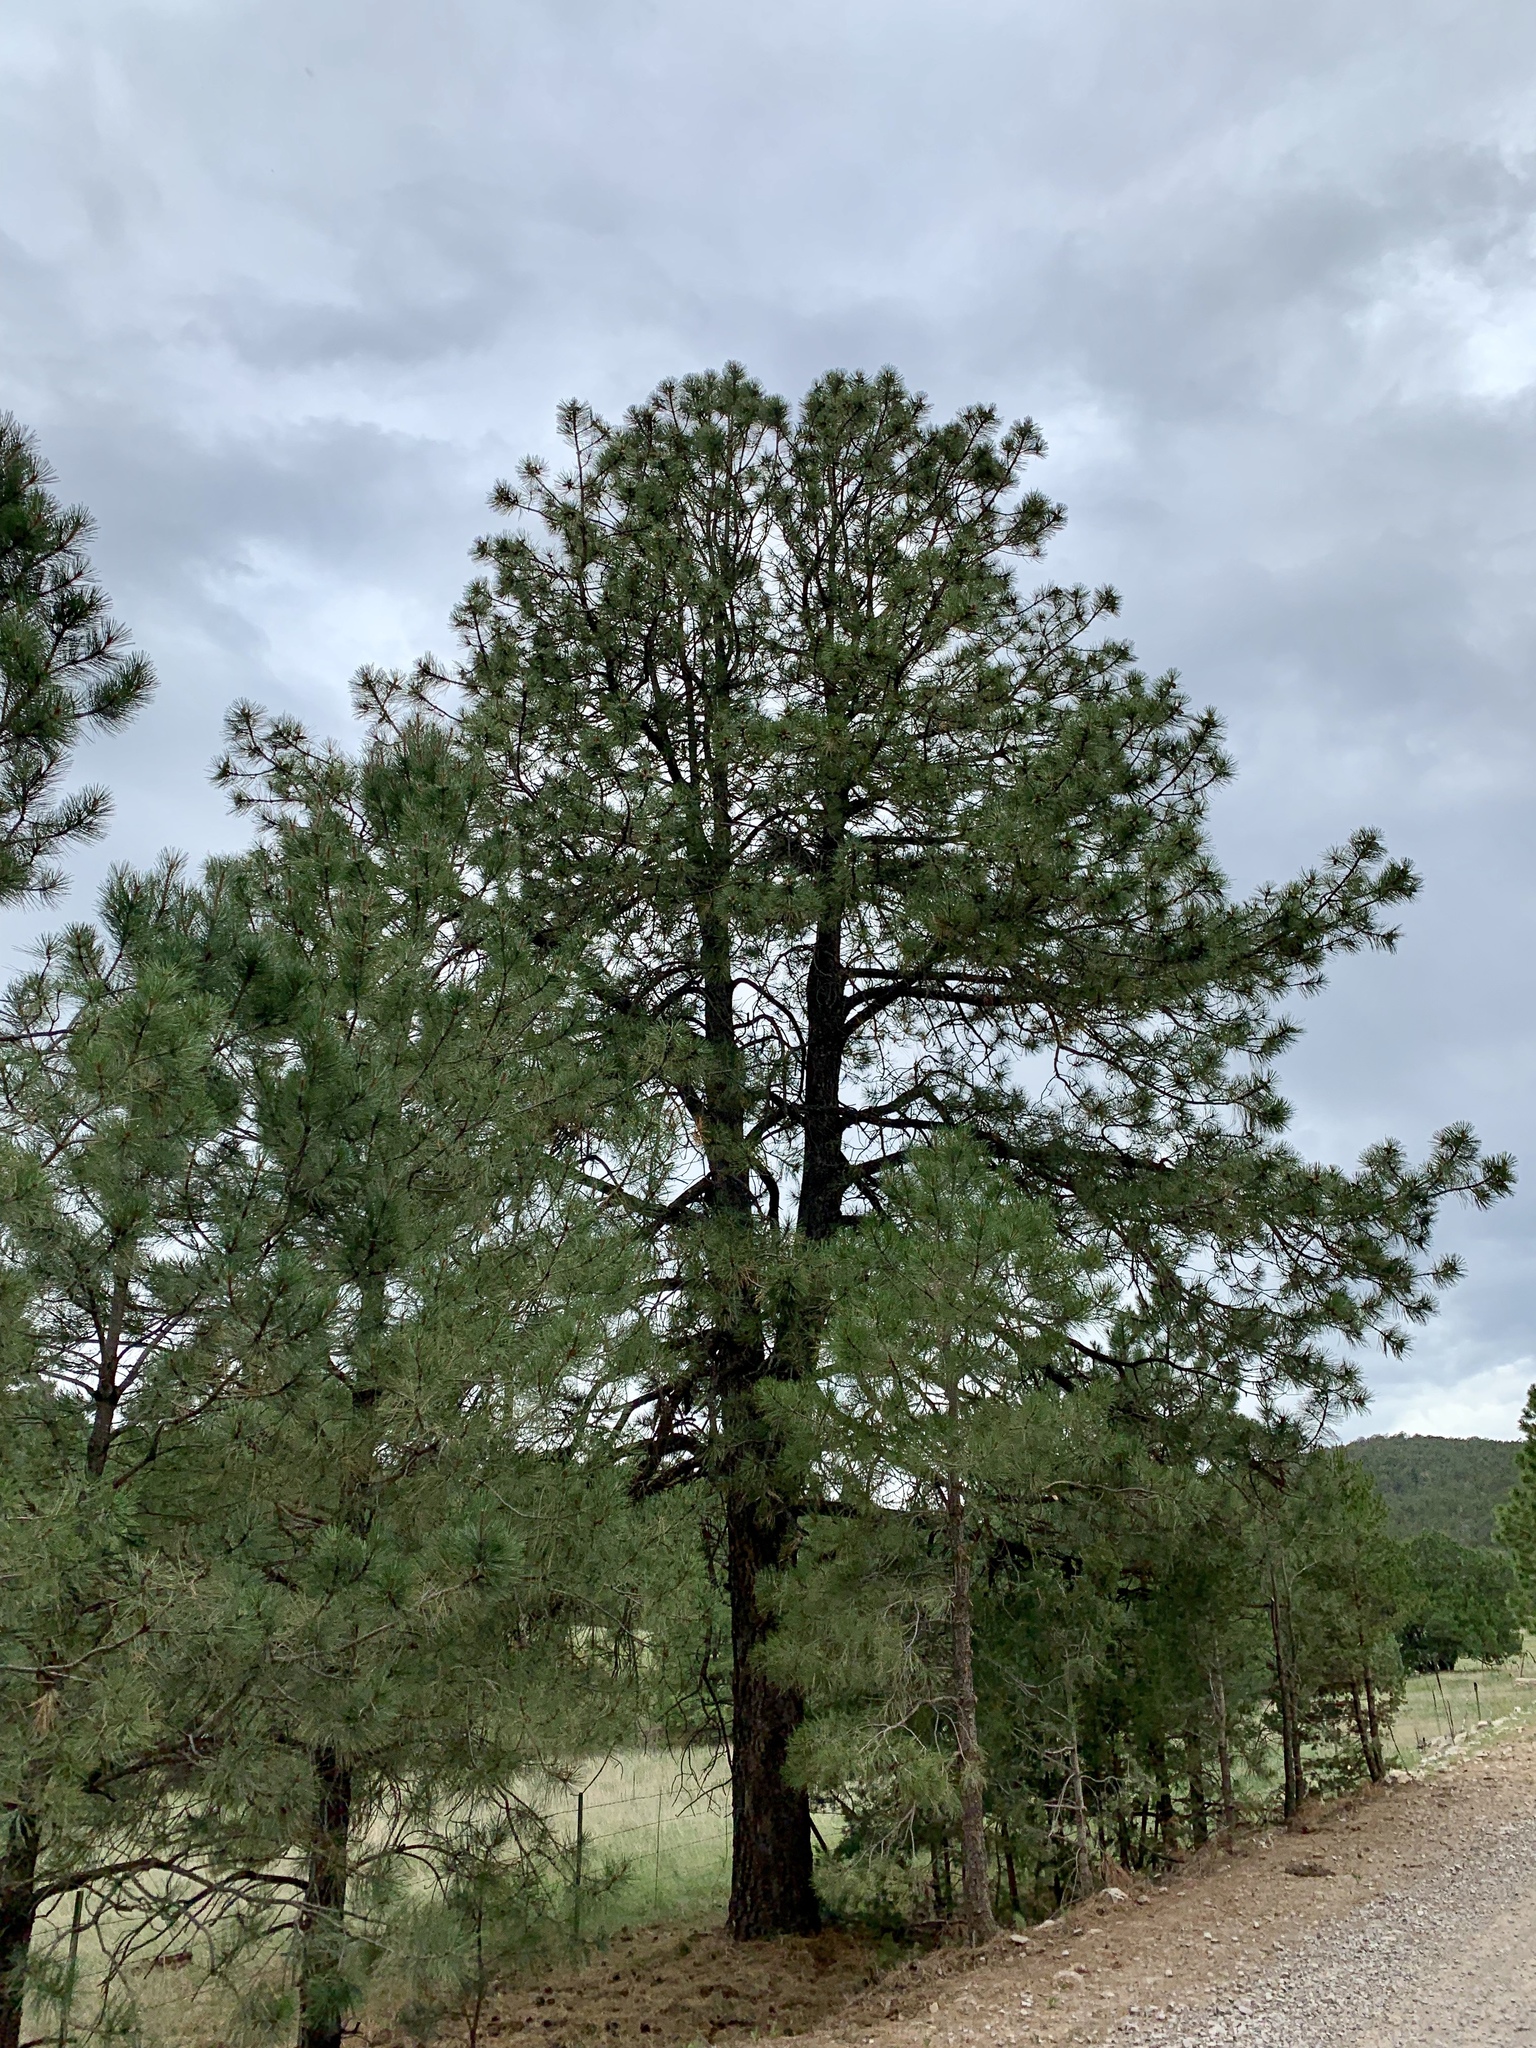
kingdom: Plantae
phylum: Tracheophyta
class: Pinopsida
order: Pinales
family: Pinaceae
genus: Pinus
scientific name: Pinus ponderosa
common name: Western yellow-pine
